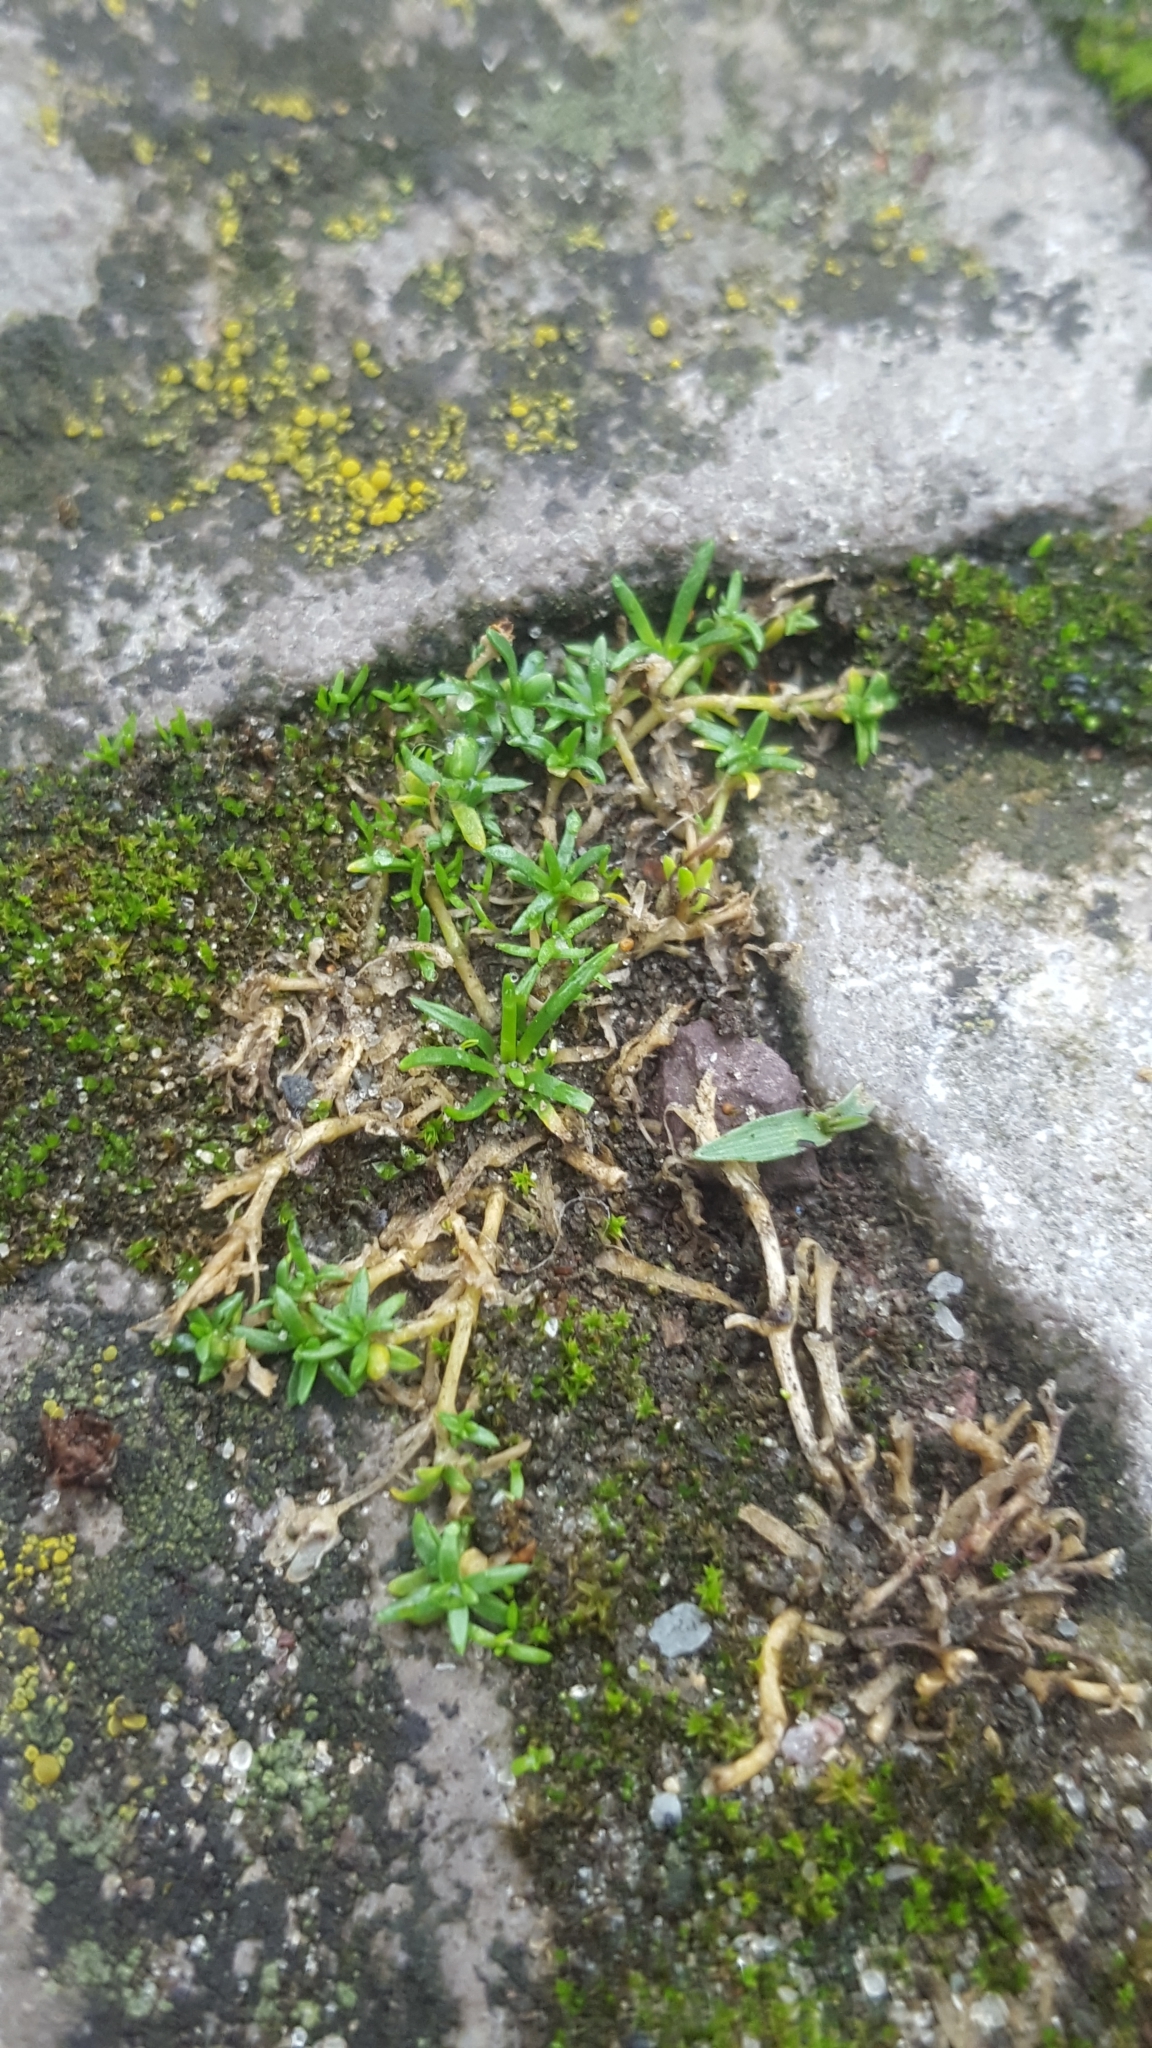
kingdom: Plantae
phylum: Tracheophyta
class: Magnoliopsida
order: Caryophyllales
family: Caryophyllaceae
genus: Sagina
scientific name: Sagina procumbens
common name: Procumbent pearlwort
